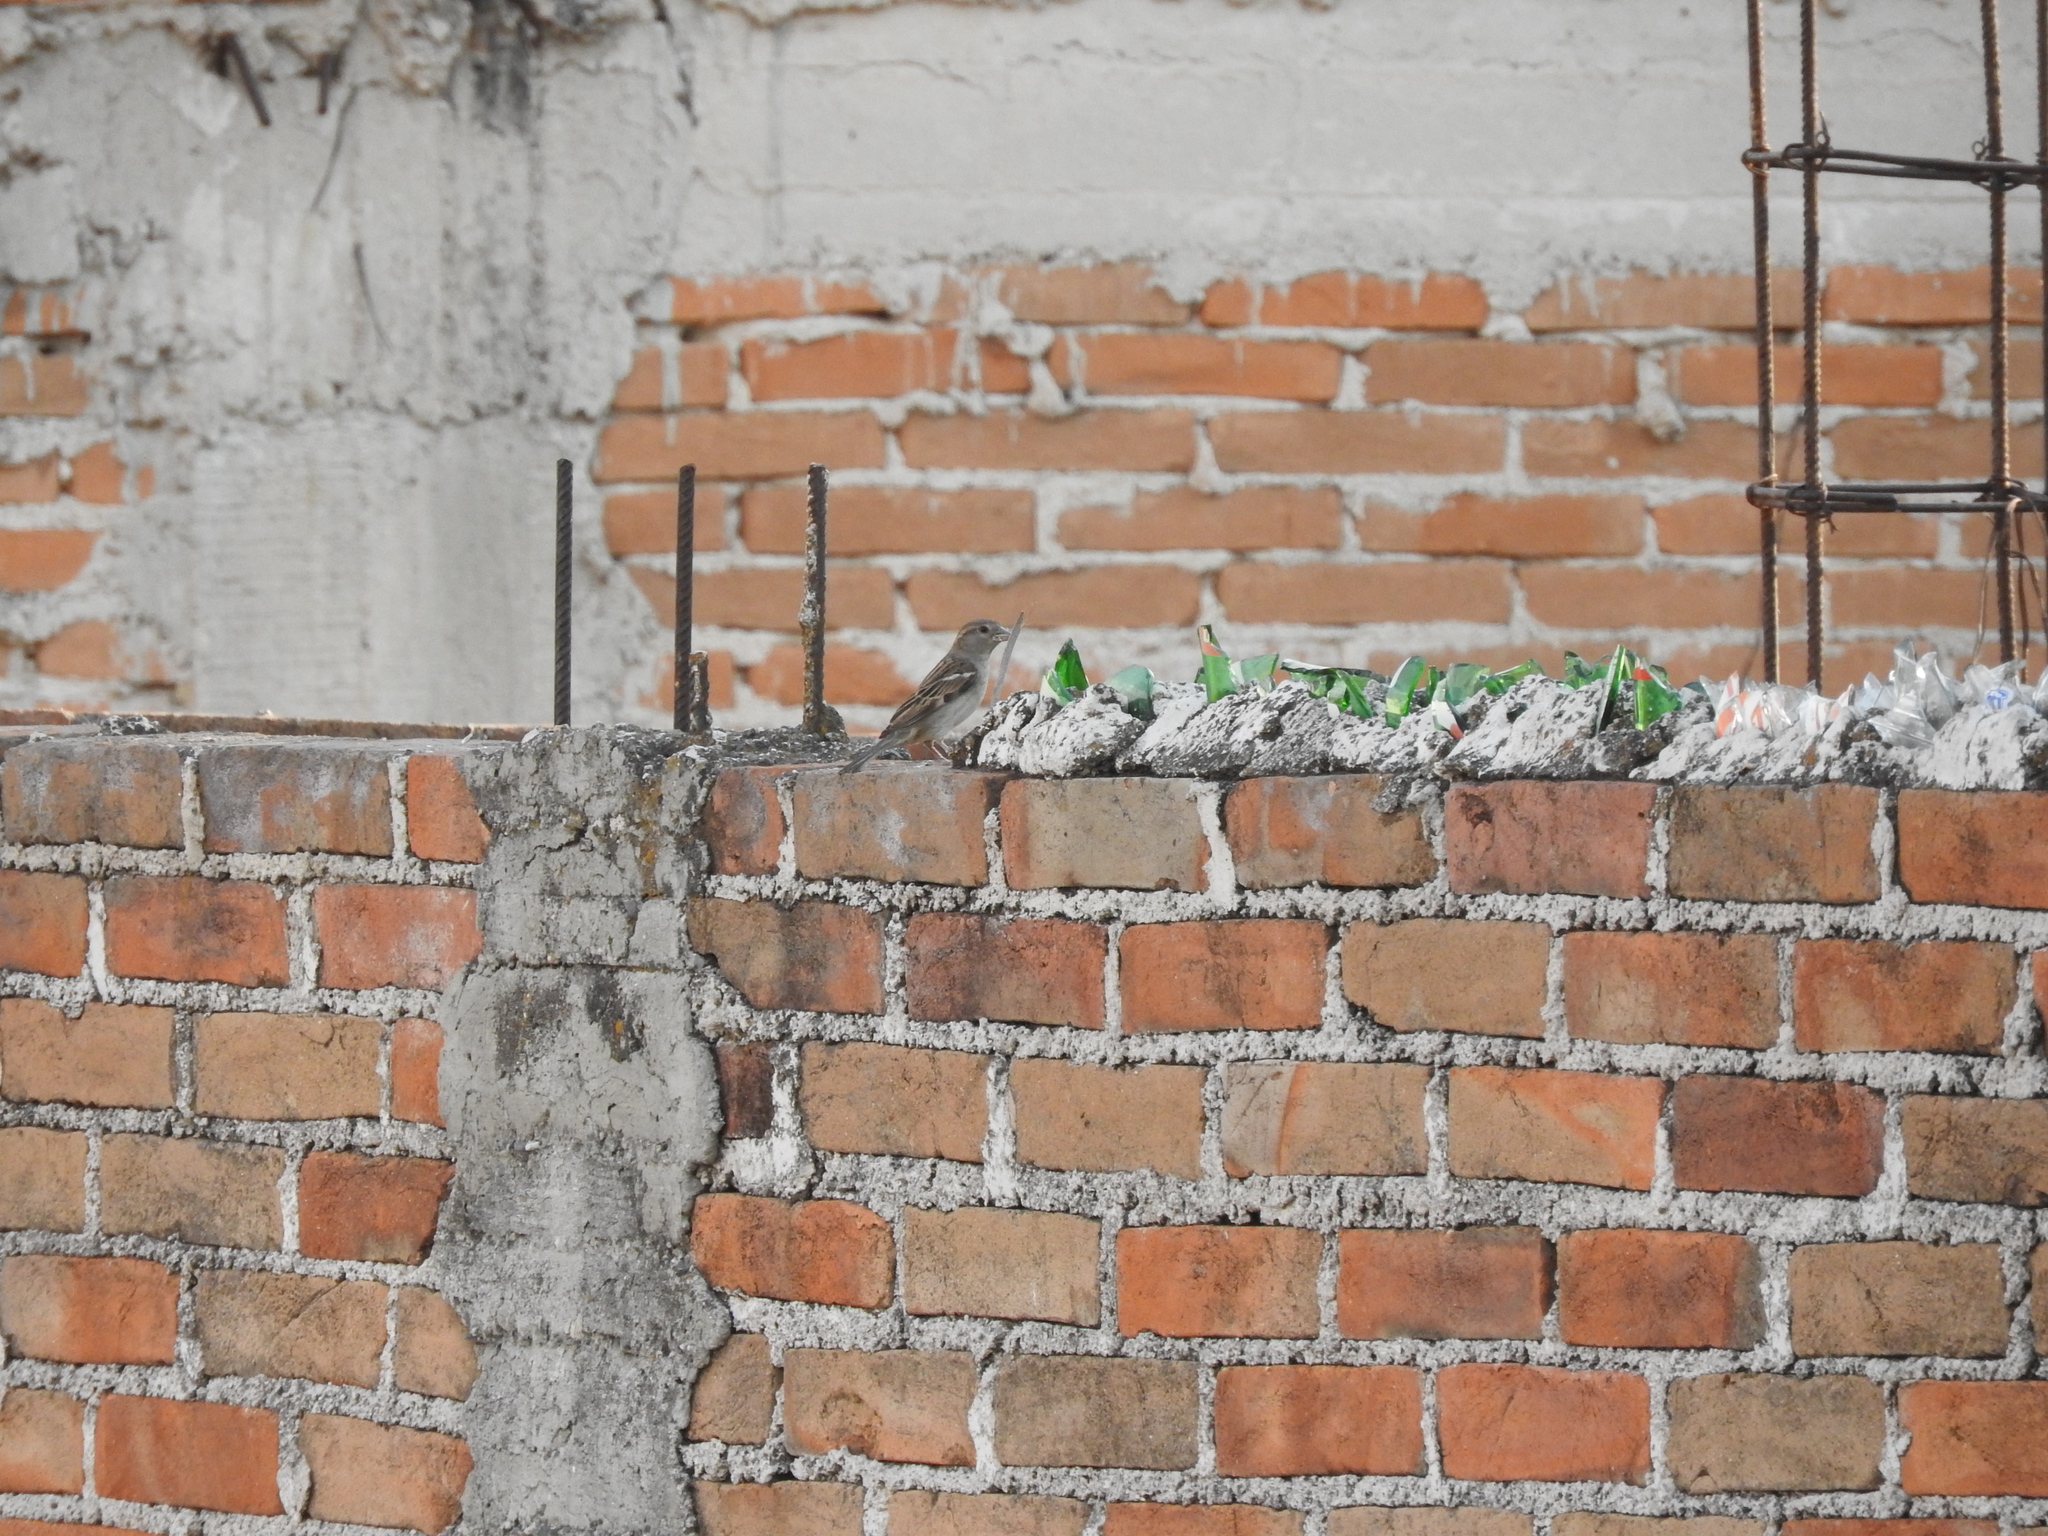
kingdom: Animalia
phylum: Chordata
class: Aves
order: Passeriformes
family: Passeridae
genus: Passer
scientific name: Passer domesticus
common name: House sparrow
